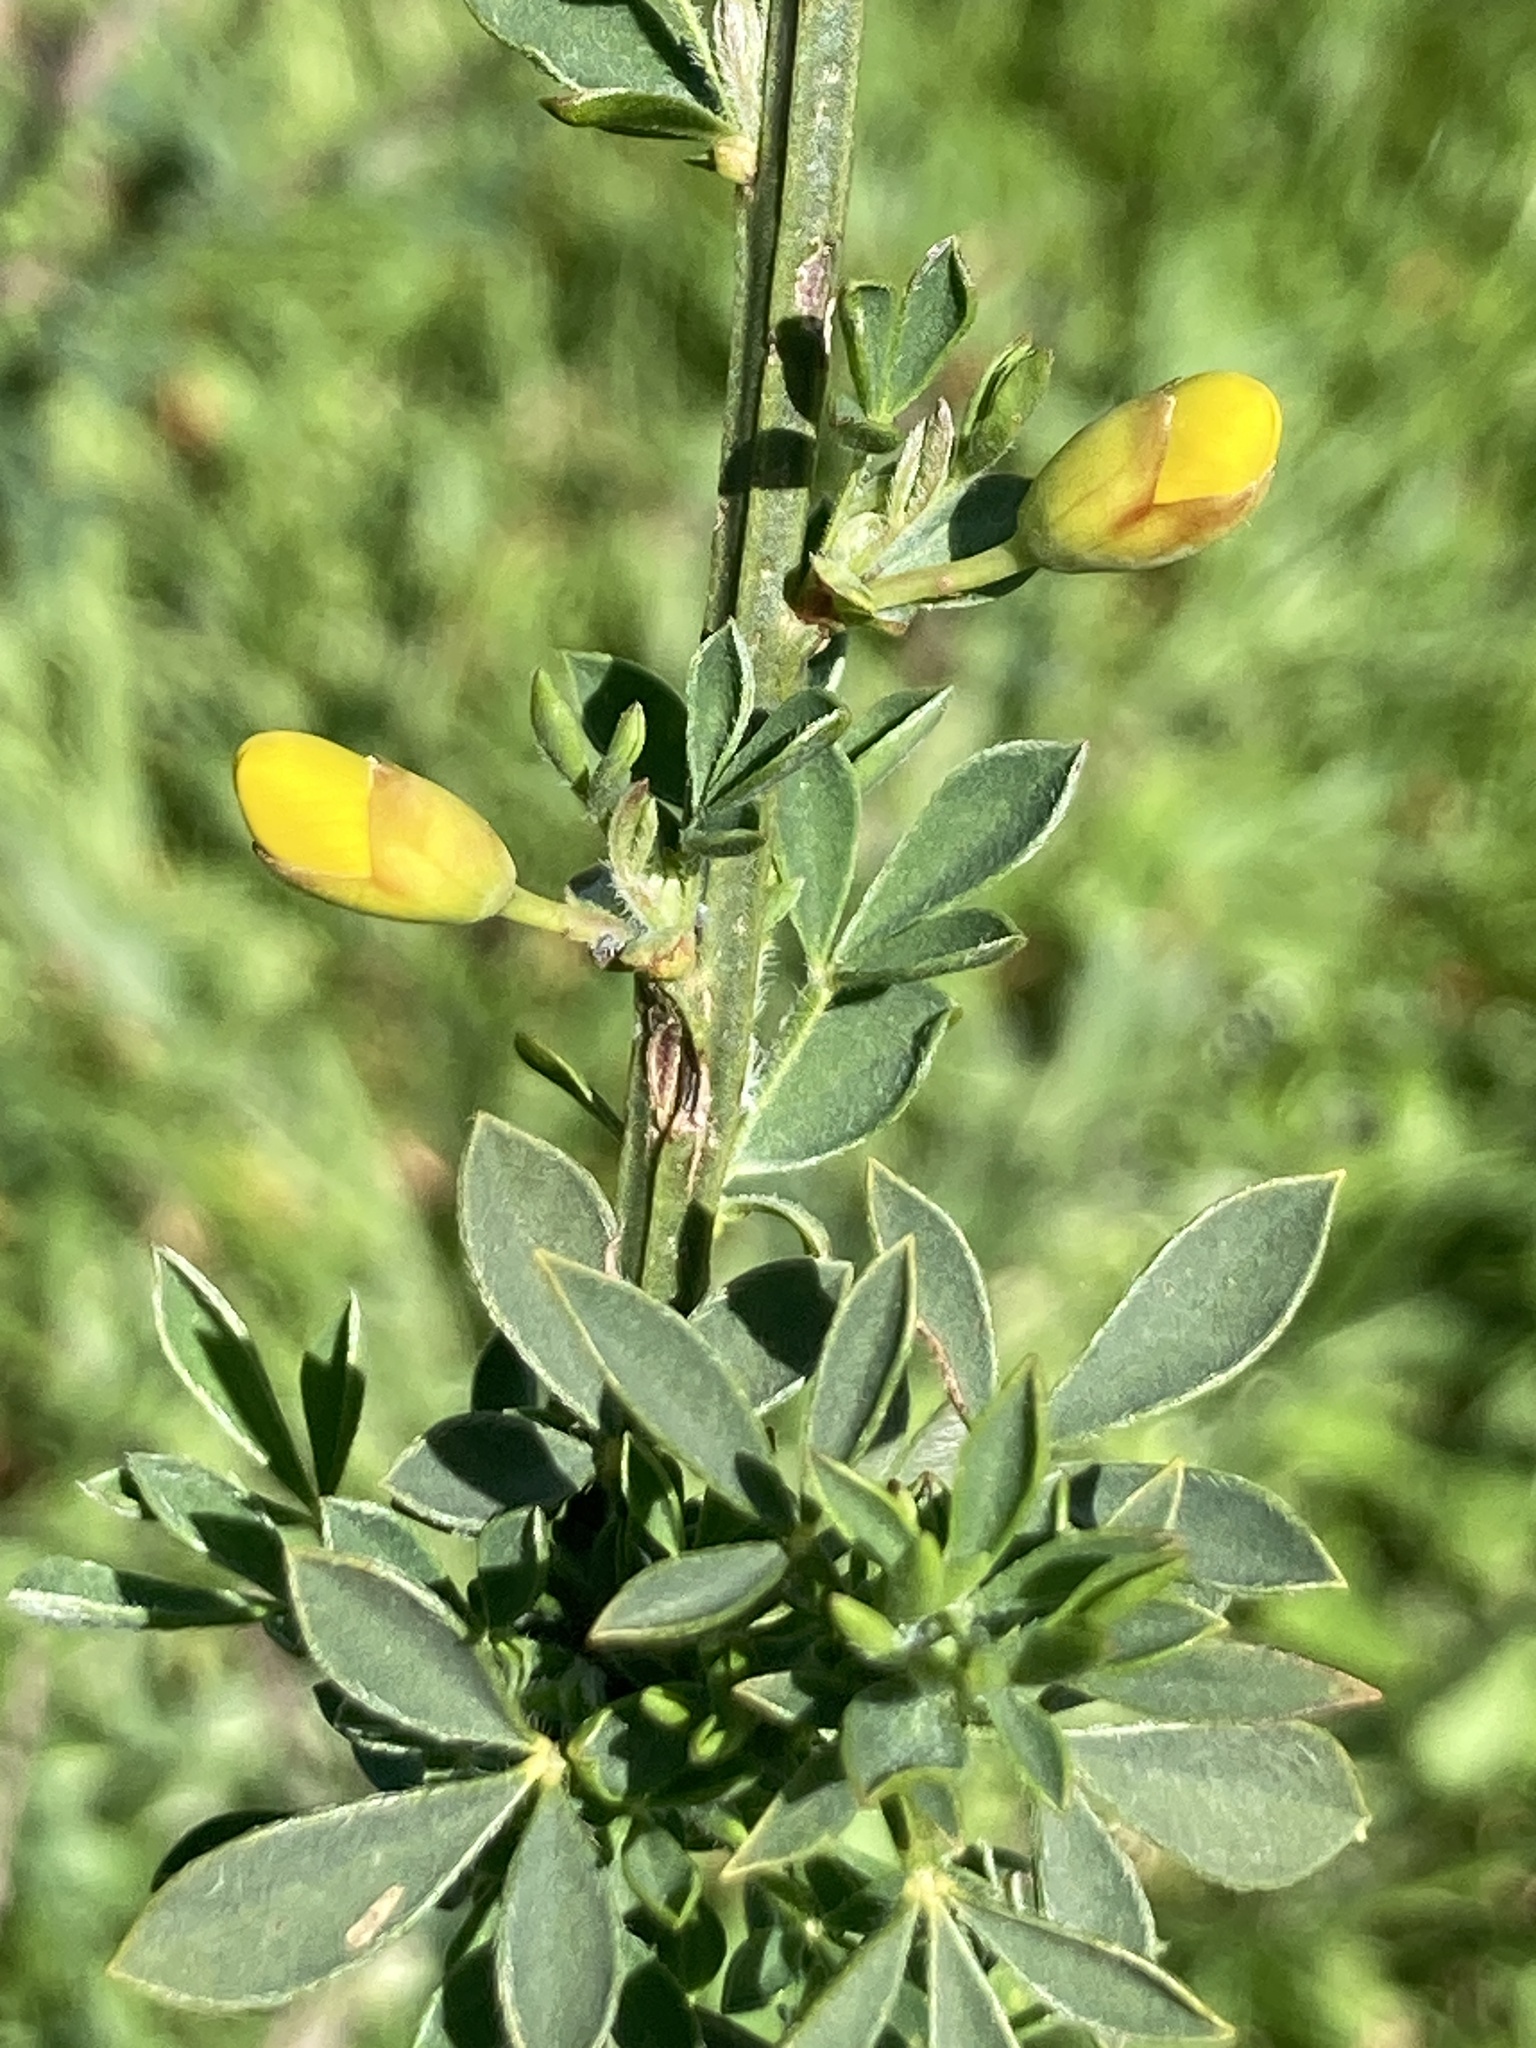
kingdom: Plantae
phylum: Tracheophyta
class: Magnoliopsida
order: Fabales
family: Fabaceae
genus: Cytisus
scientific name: Cytisus scoparius
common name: Scotch broom
